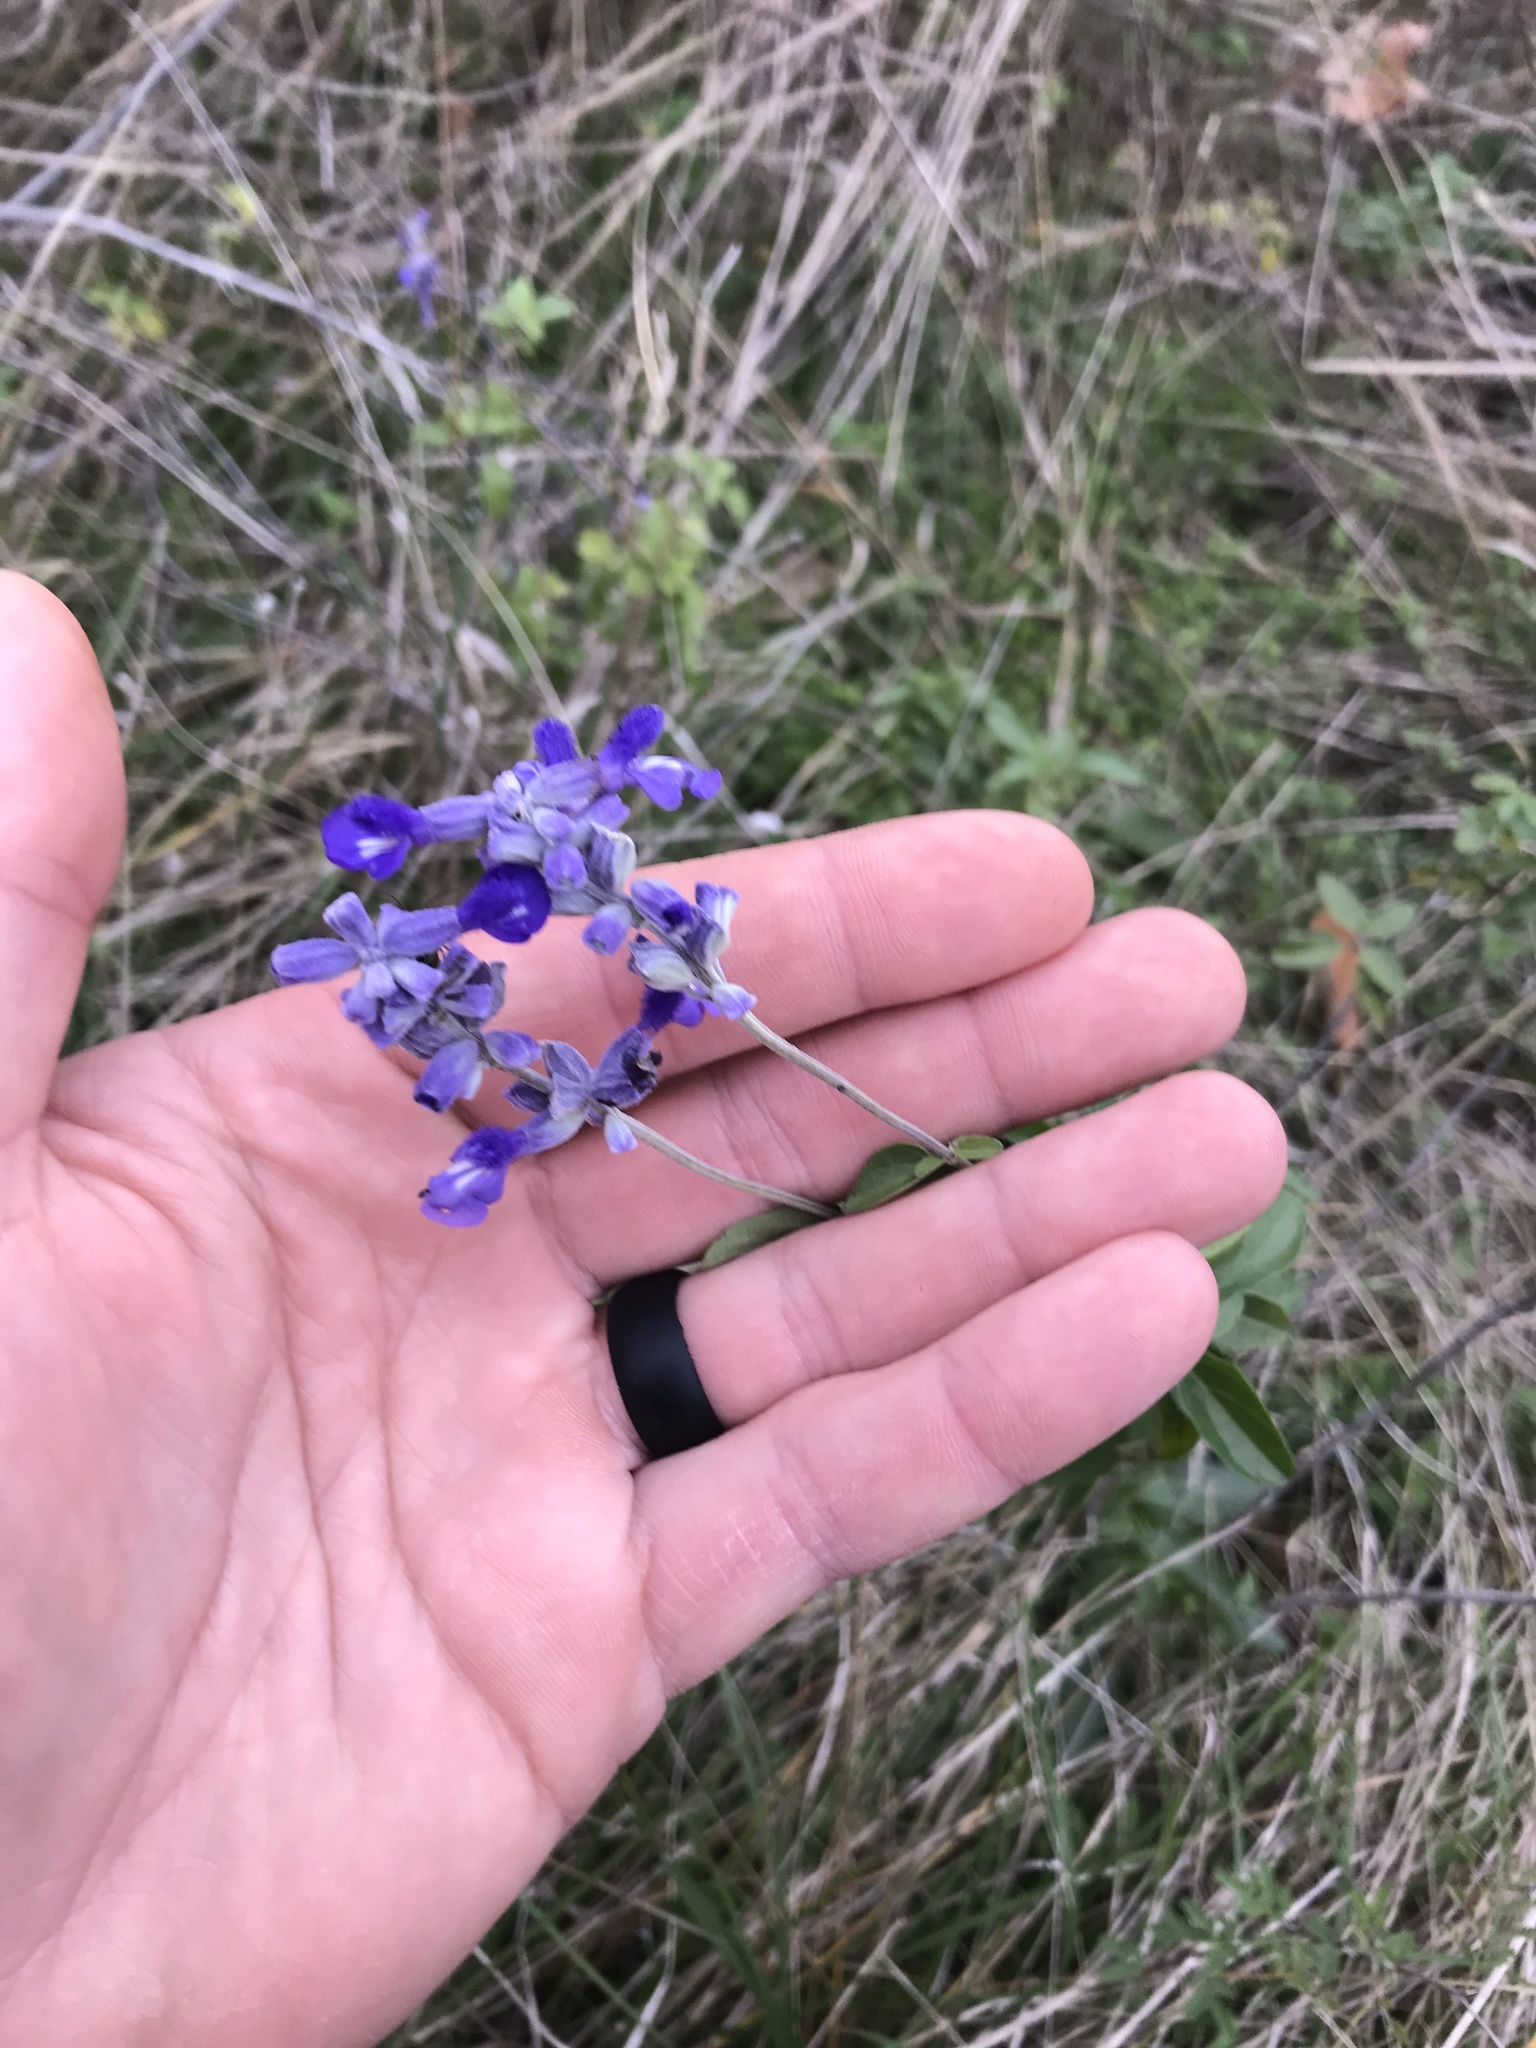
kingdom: Plantae
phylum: Tracheophyta
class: Magnoliopsida
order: Lamiales
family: Lamiaceae
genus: Salvia
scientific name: Salvia farinacea
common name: Mealy sage
